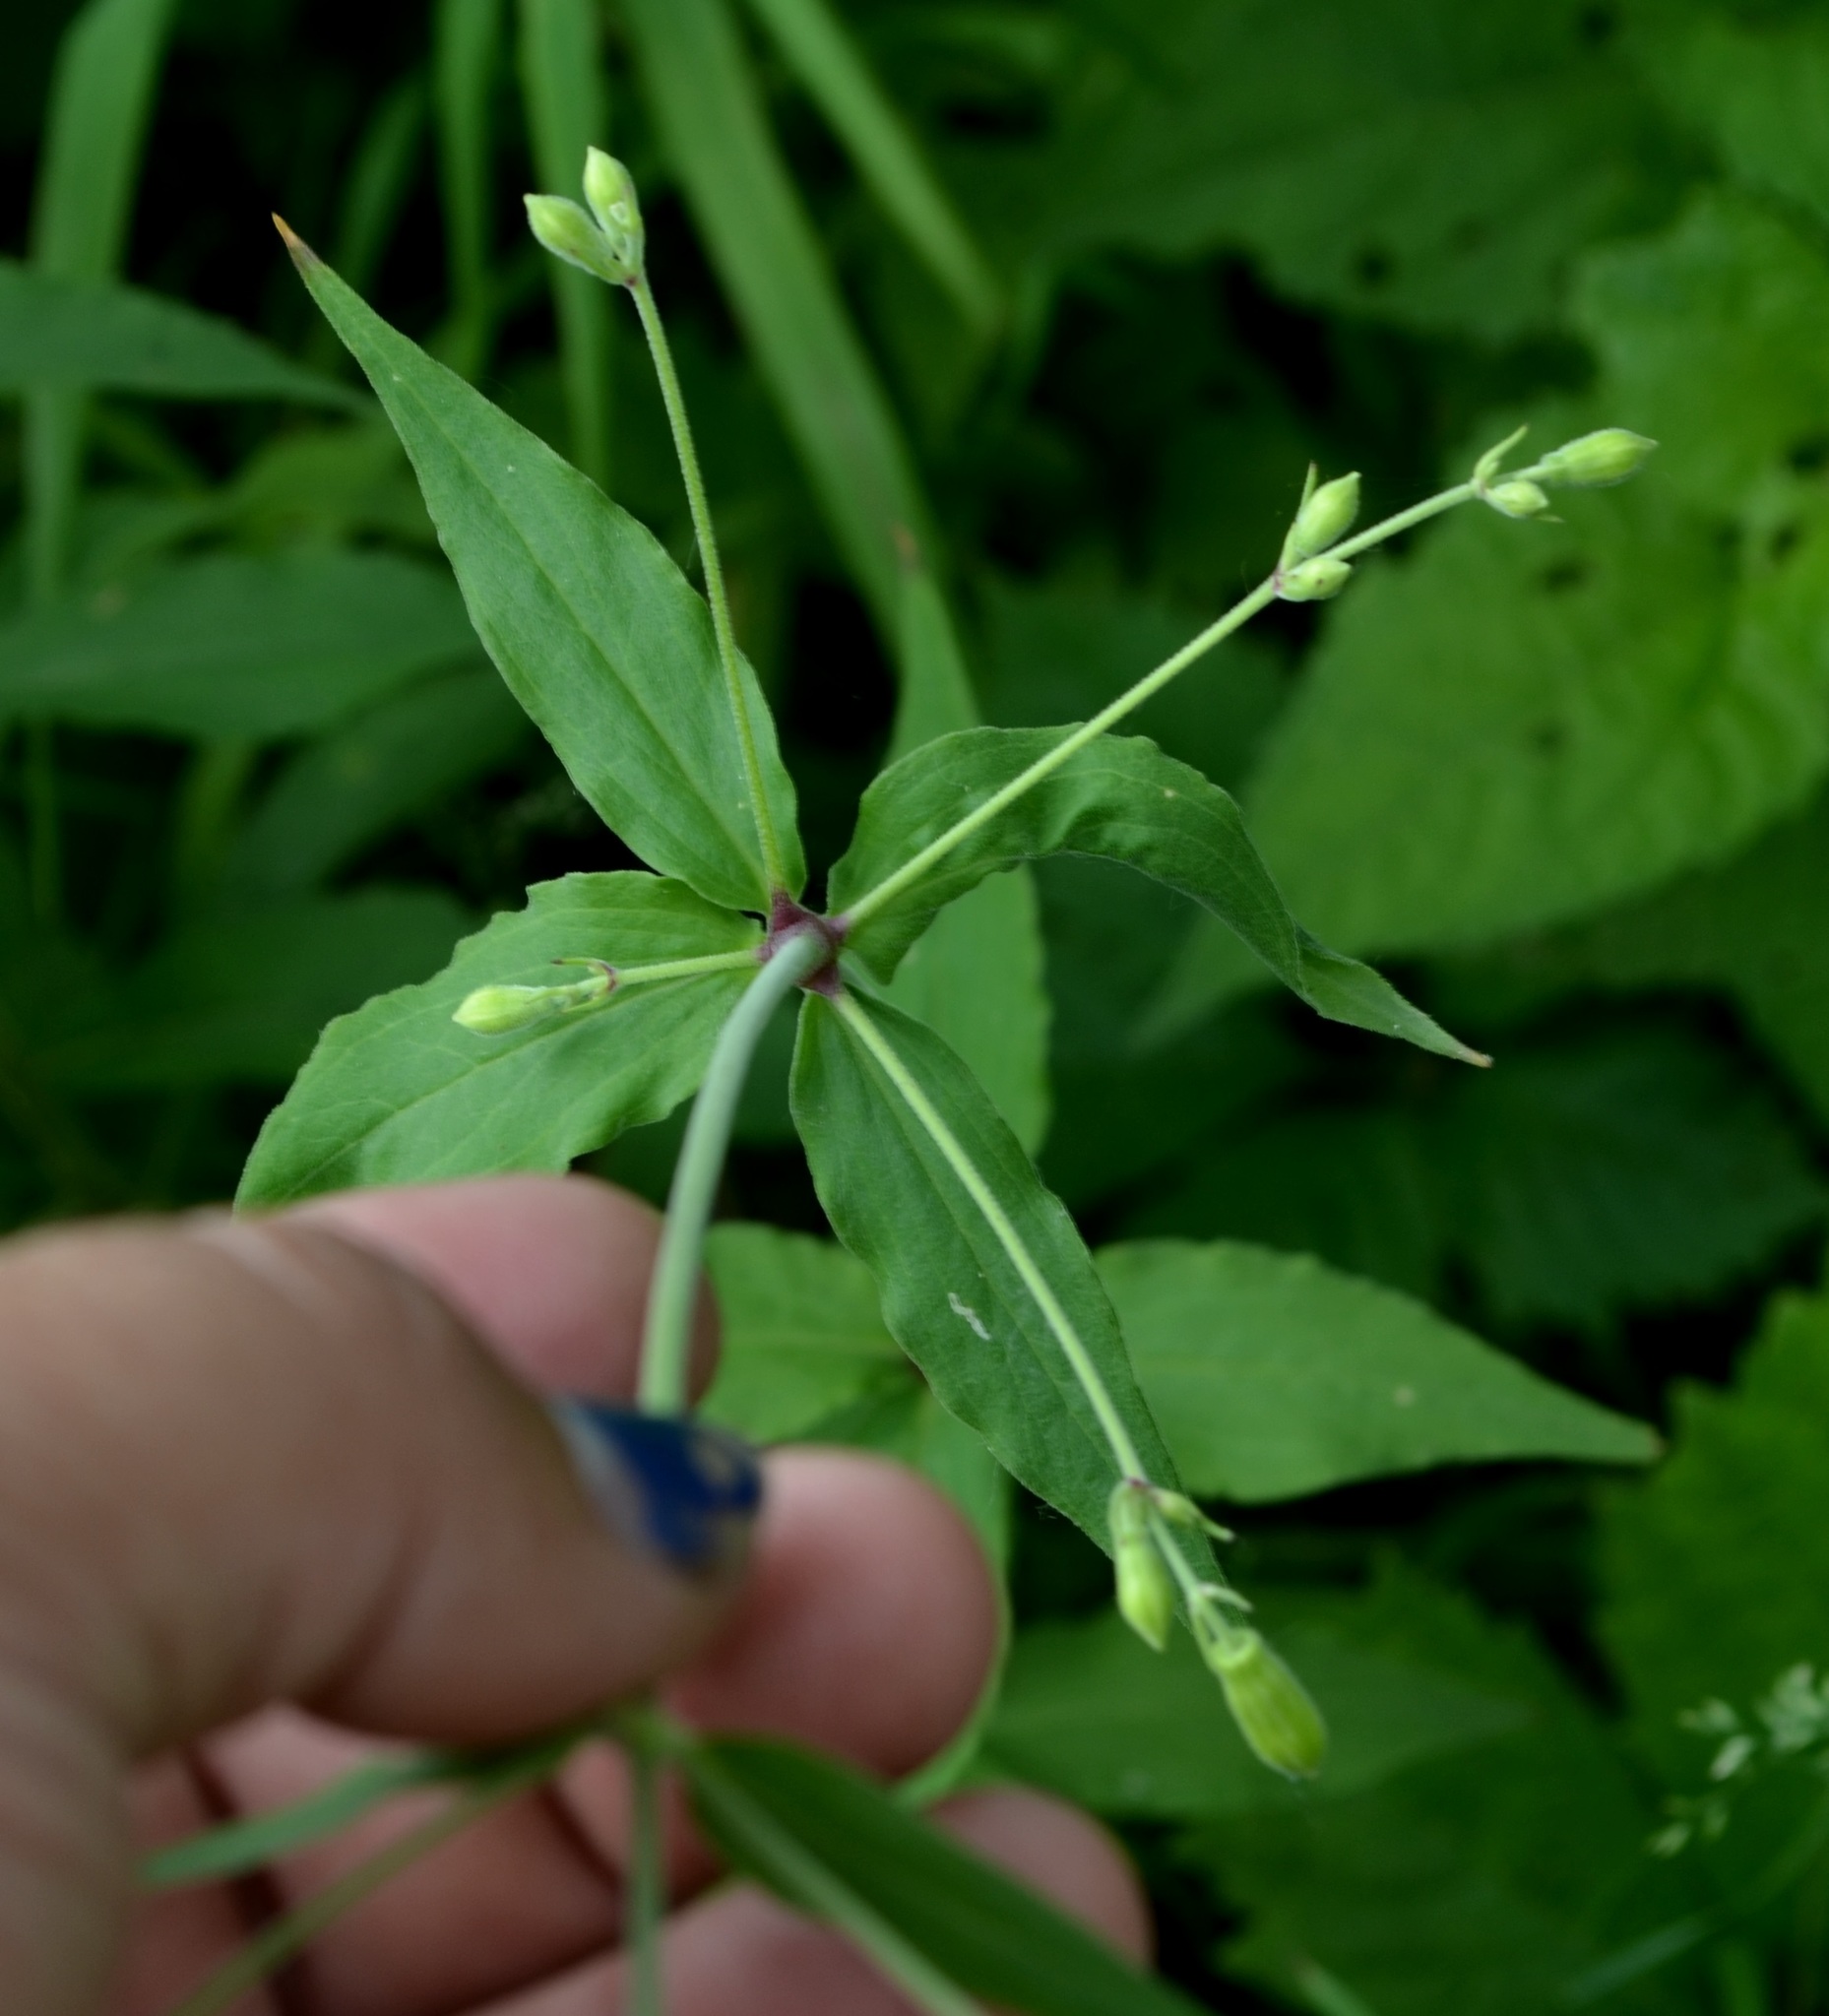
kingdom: Plantae
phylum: Tracheophyta
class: Magnoliopsida
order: Caryophyllales
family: Caryophyllaceae
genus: Silene
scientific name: Silene stellata
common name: Starry campion
